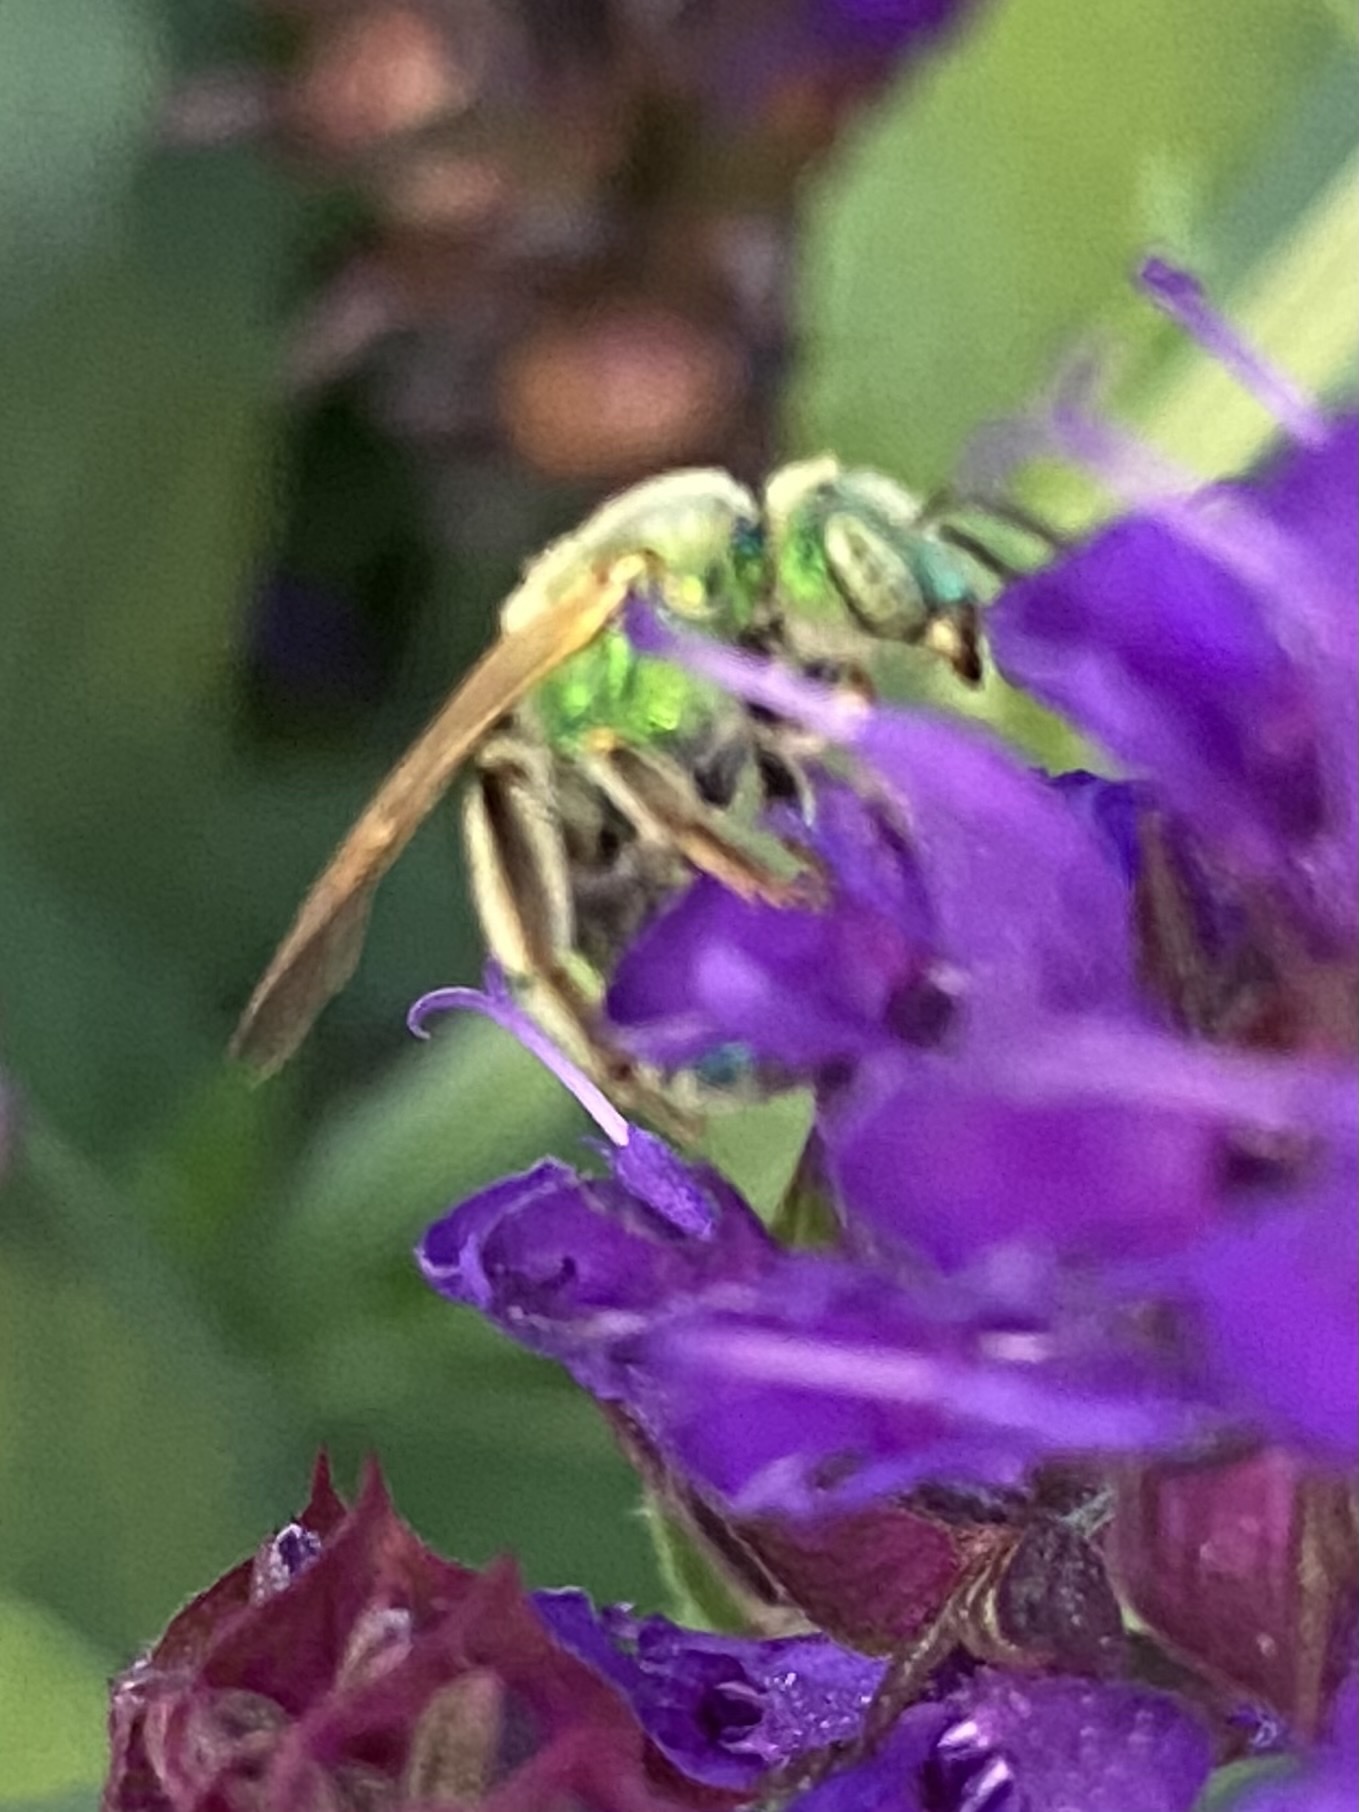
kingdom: Animalia
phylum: Arthropoda
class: Insecta
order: Hymenoptera
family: Halictidae
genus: Agapostemon
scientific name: Agapostemon
